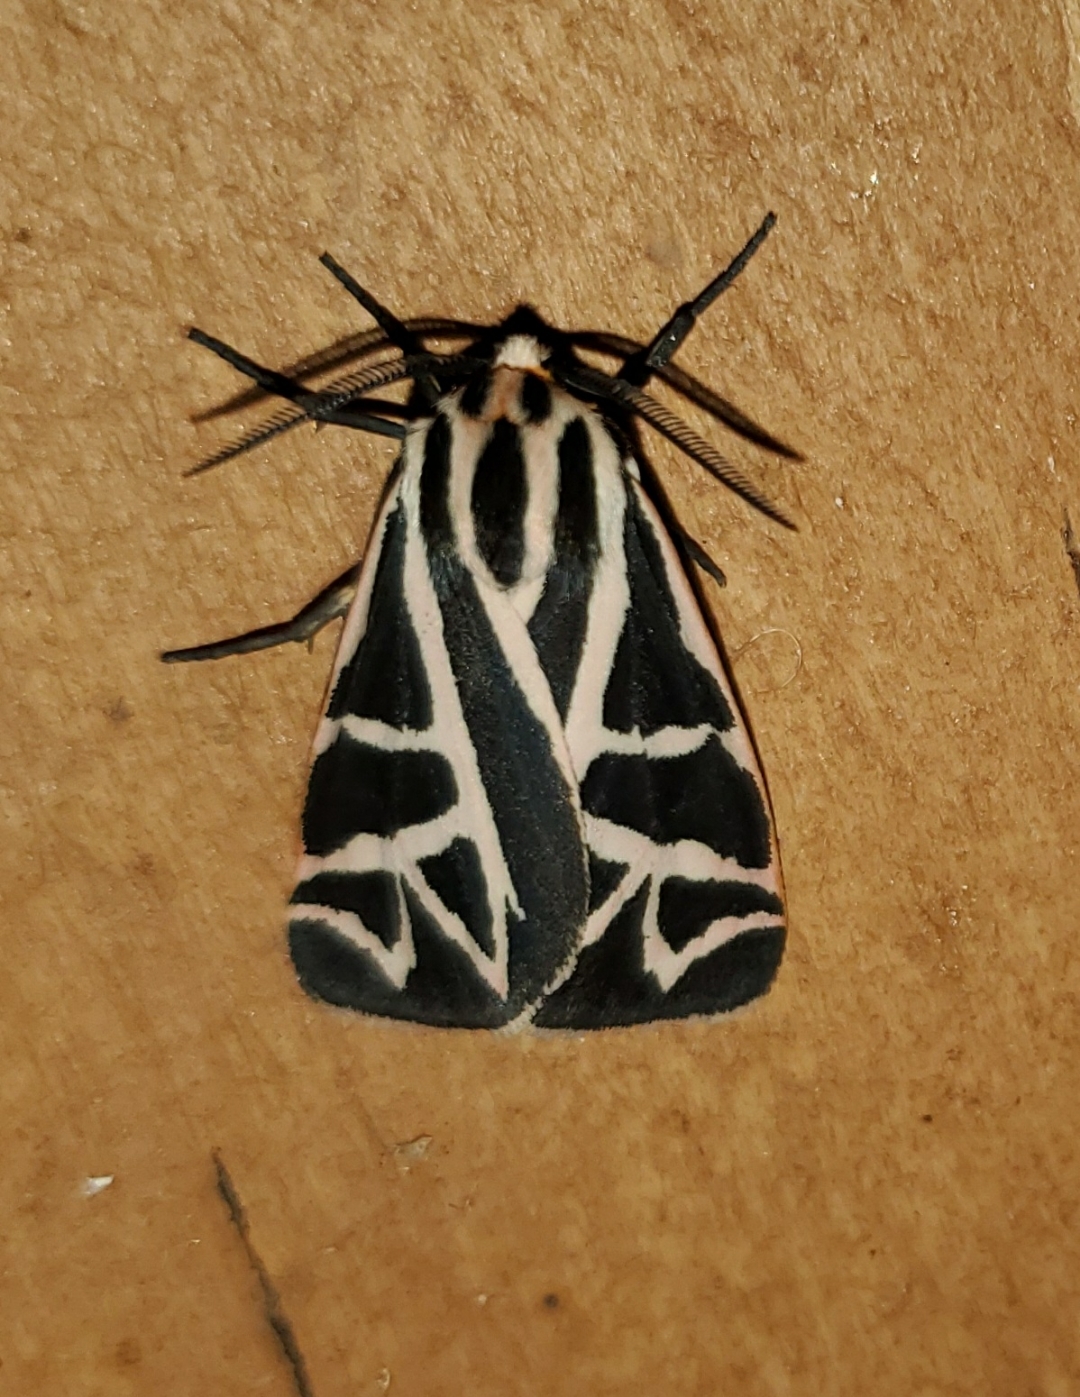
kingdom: Animalia
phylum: Arthropoda
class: Insecta
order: Lepidoptera
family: Erebidae
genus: Apantesis
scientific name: Apantesis
